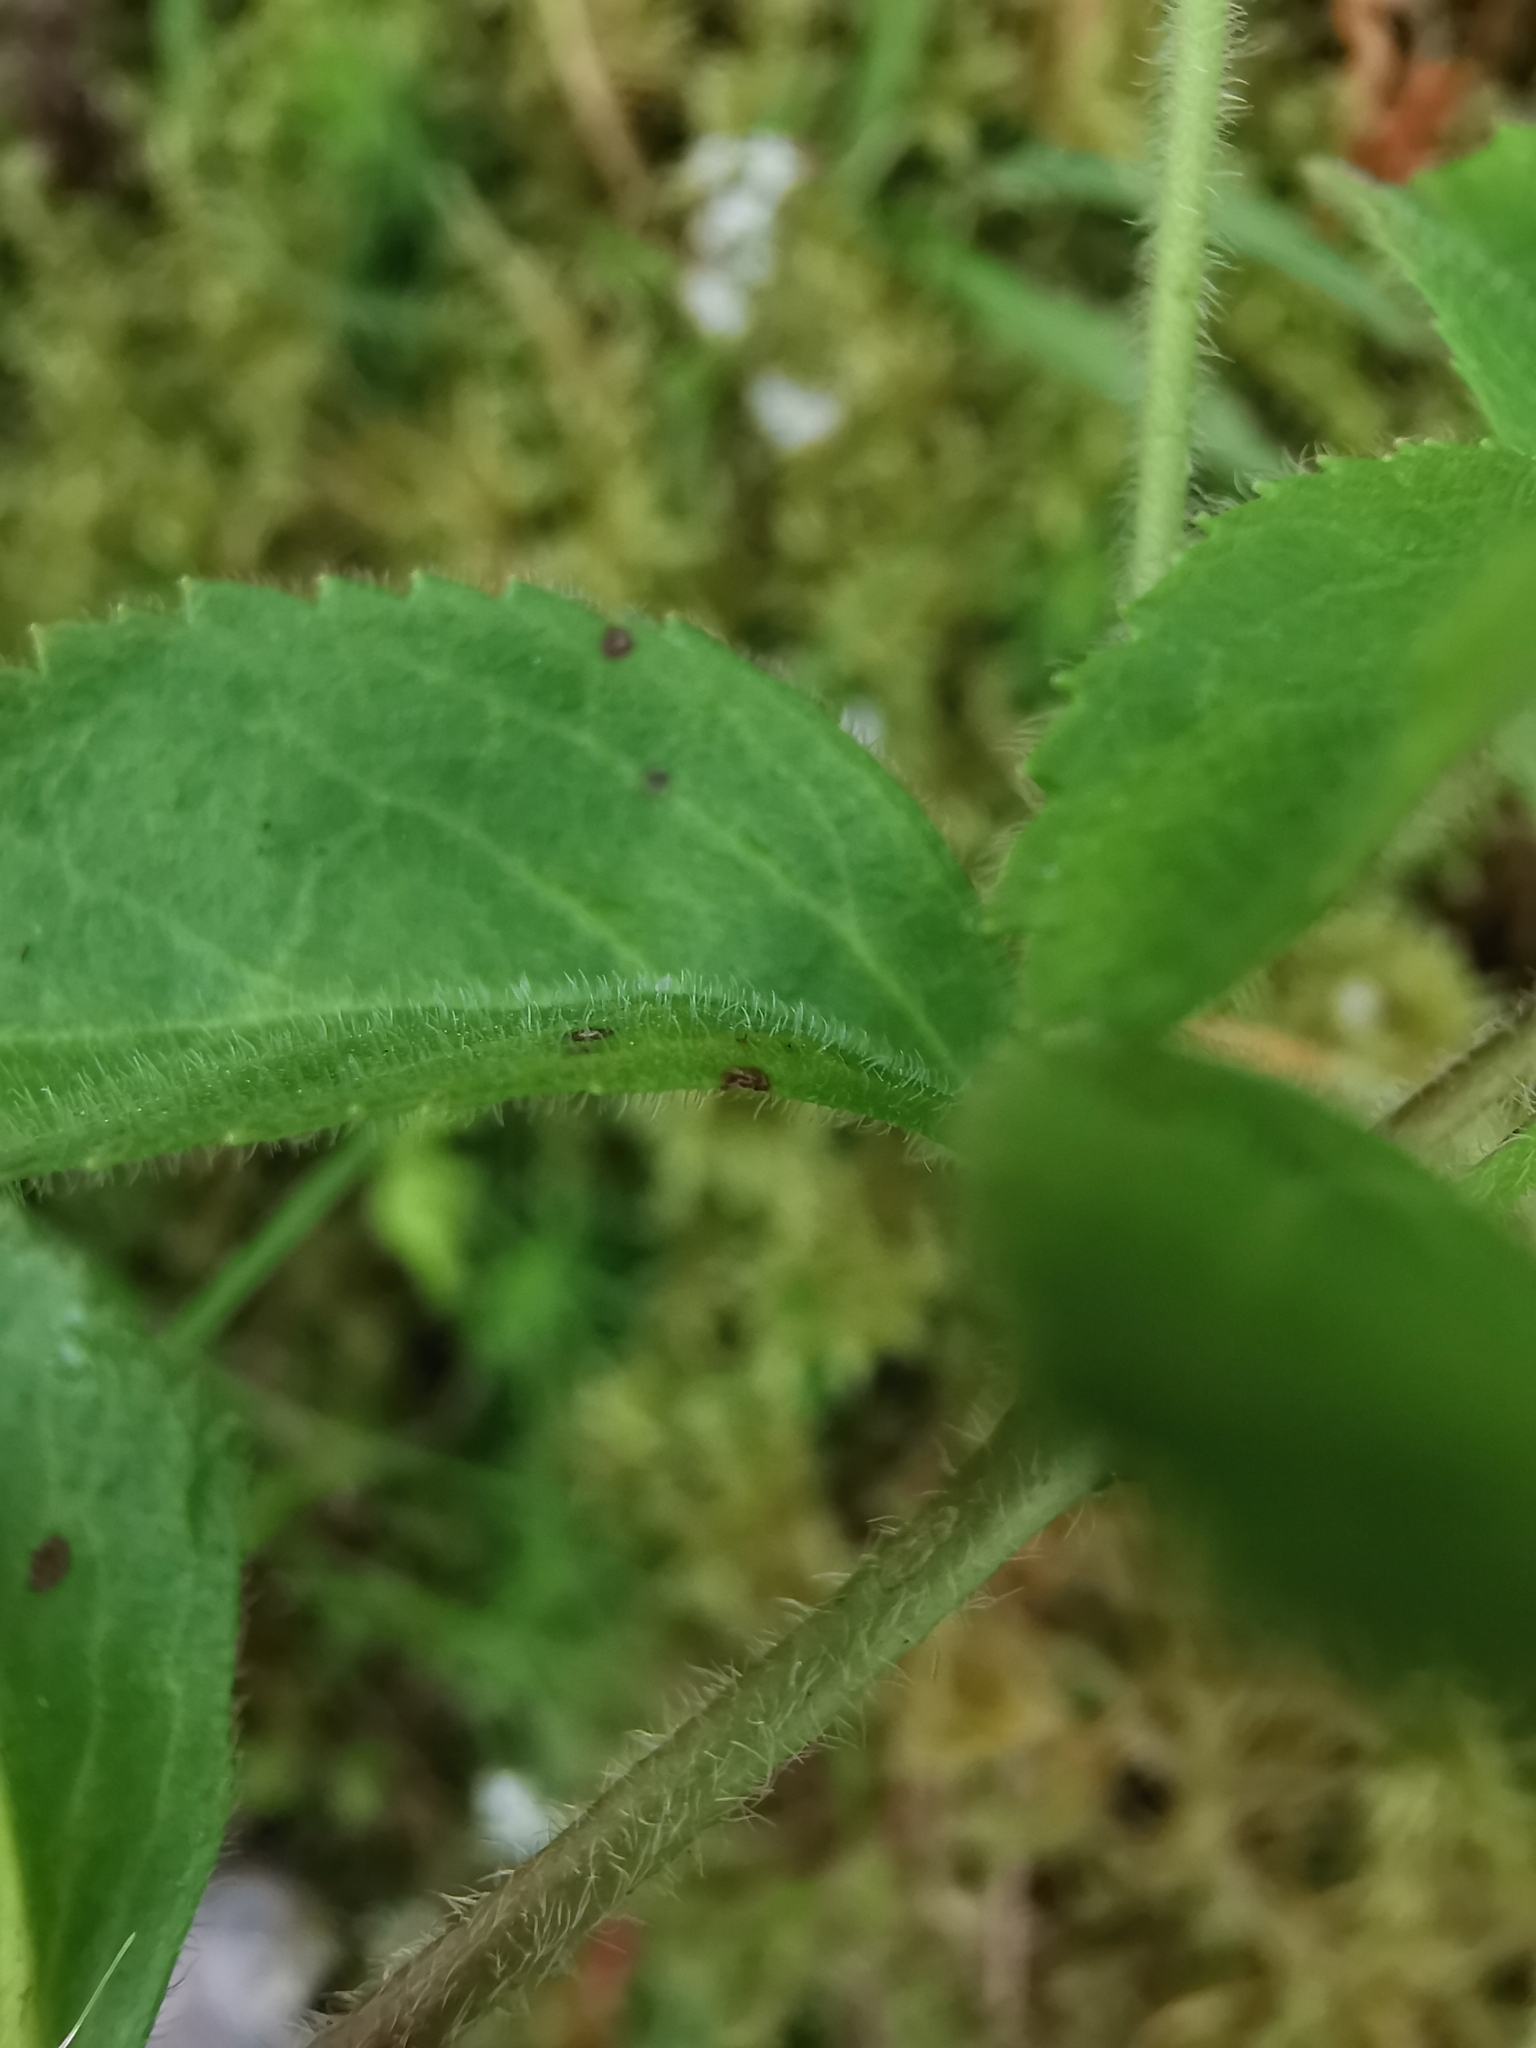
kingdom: Plantae
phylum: Tracheophyta
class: Magnoliopsida
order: Lamiales
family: Plantaginaceae
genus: Veronica
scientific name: Veronica officinalis
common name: Common speedwell
